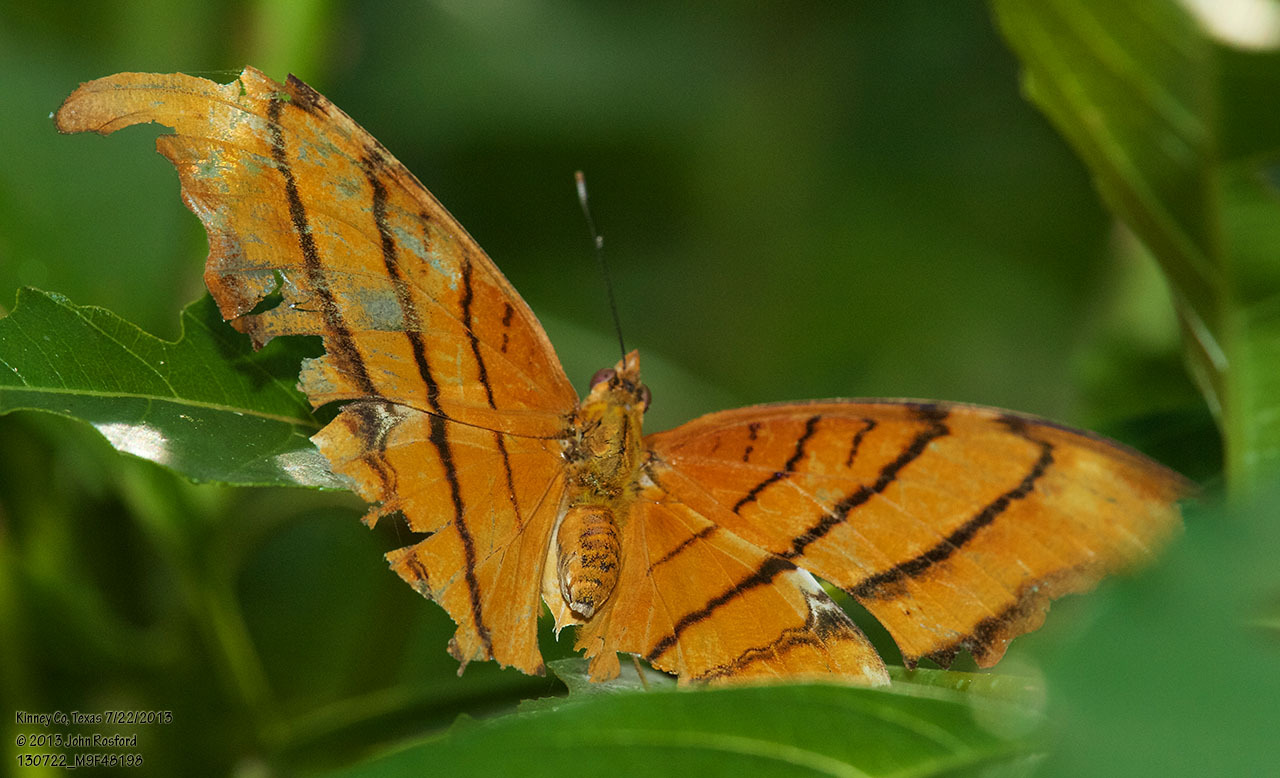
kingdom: Animalia
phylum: Arthropoda
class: Insecta
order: Lepidoptera
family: Nymphalidae
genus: Marpesia
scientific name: Marpesia petreus
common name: Red dagger wing
